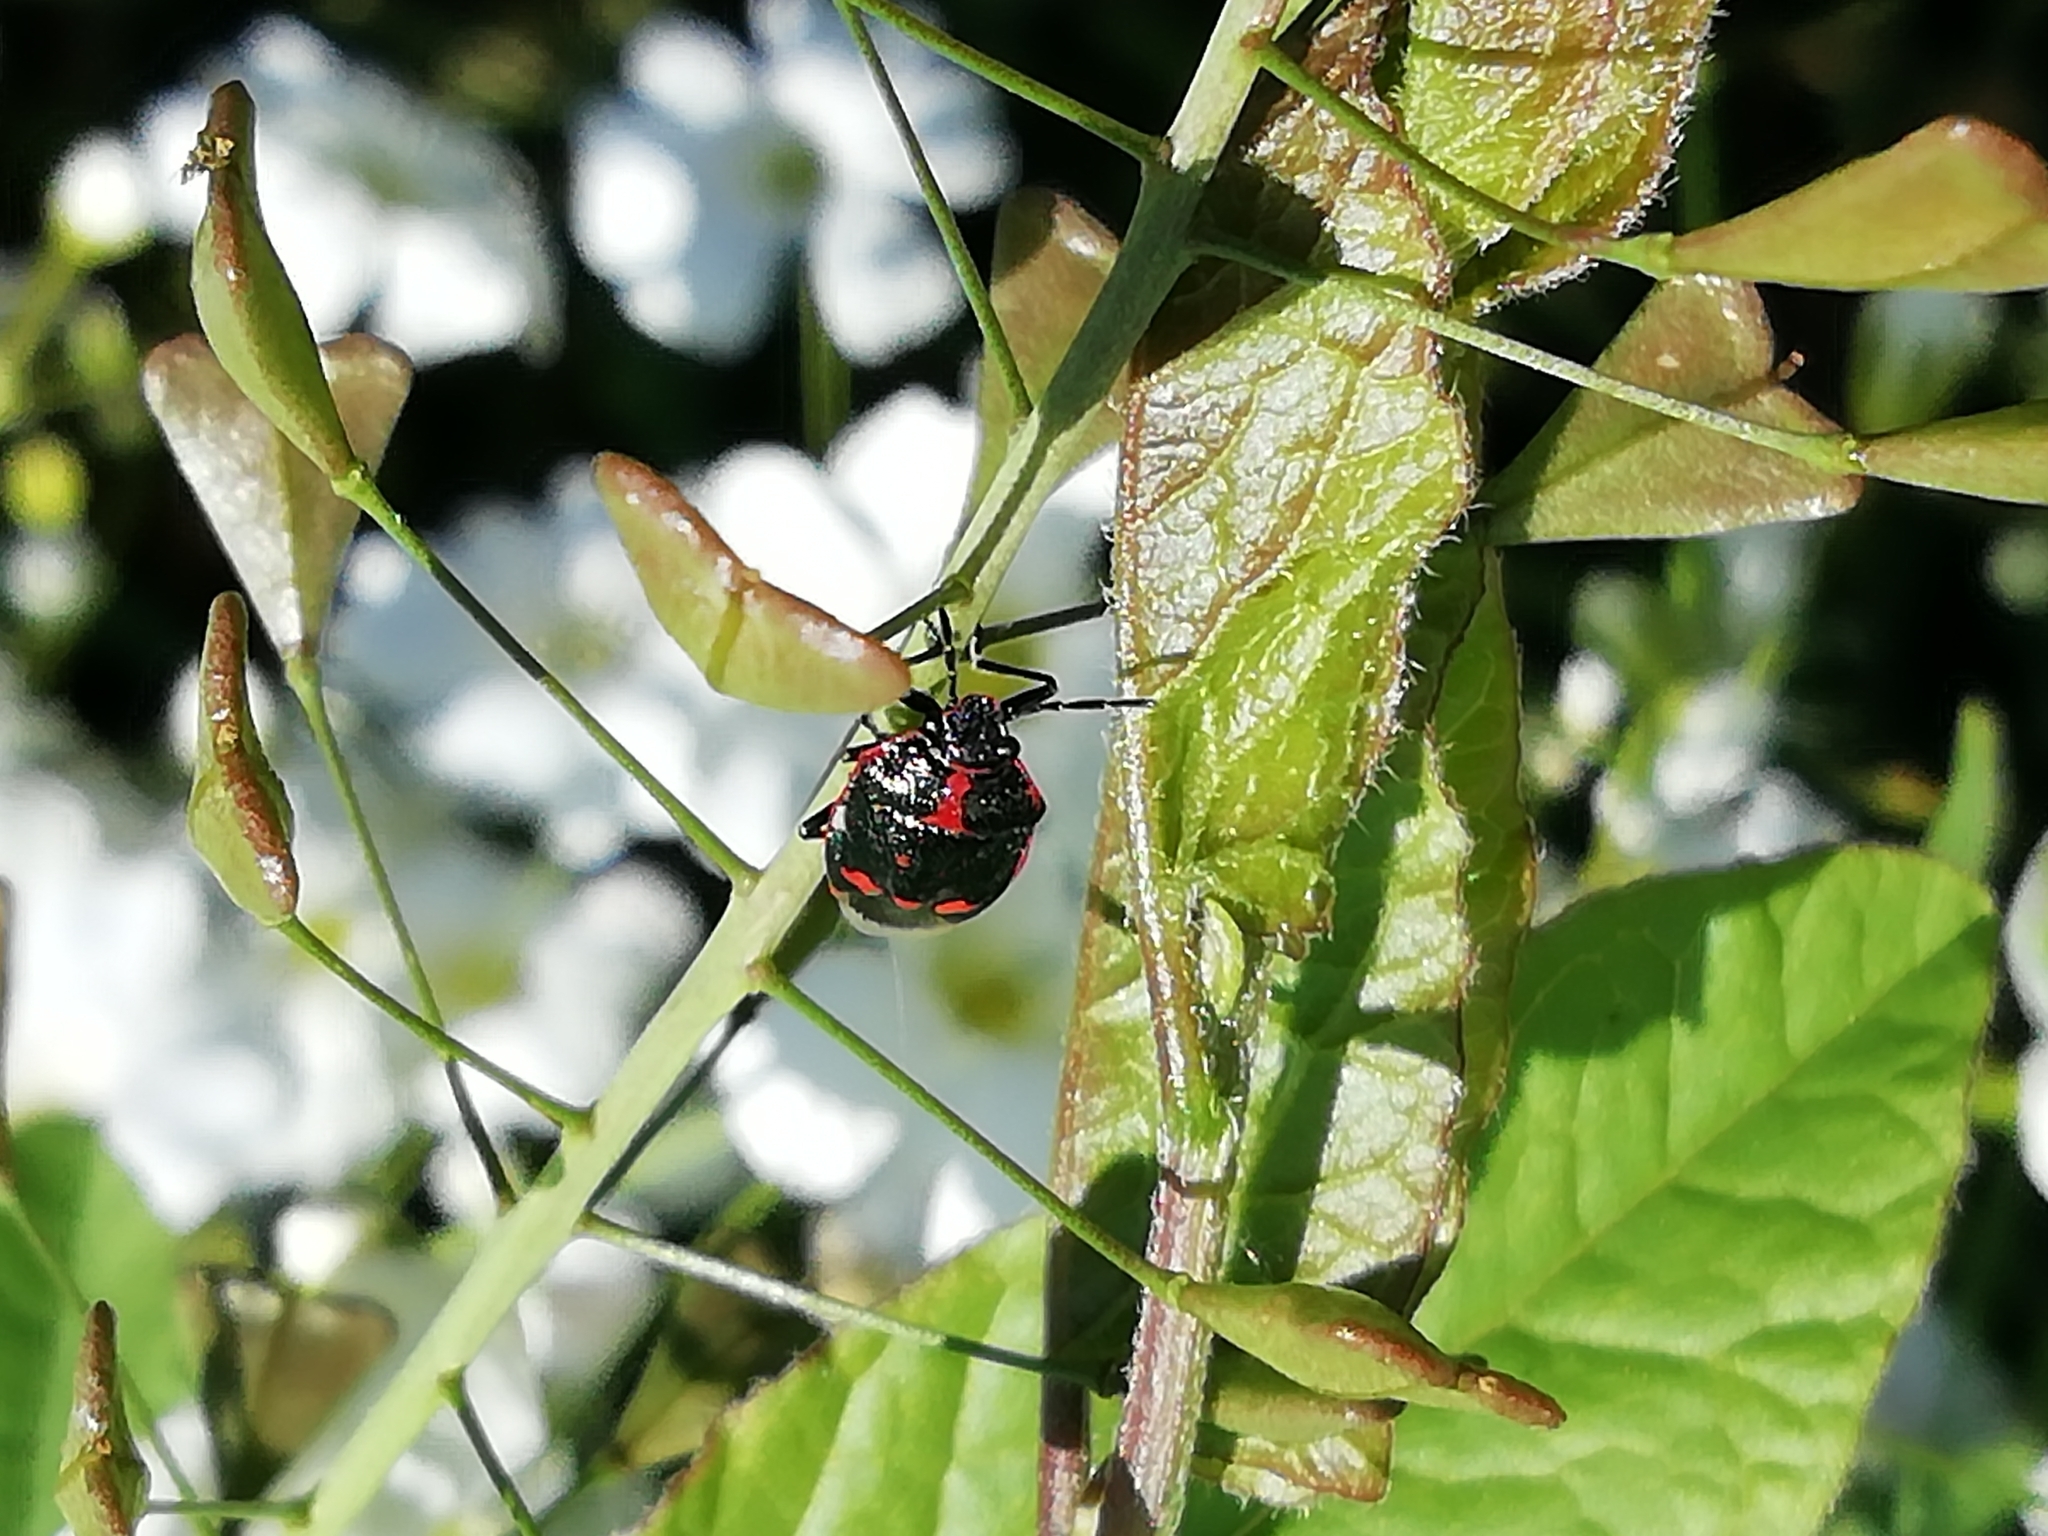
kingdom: Animalia
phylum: Arthropoda
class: Insecta
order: Hemiptera
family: Pentatomidae
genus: Eurydema
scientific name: Eurydema oleracea
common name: Cabbage bug
